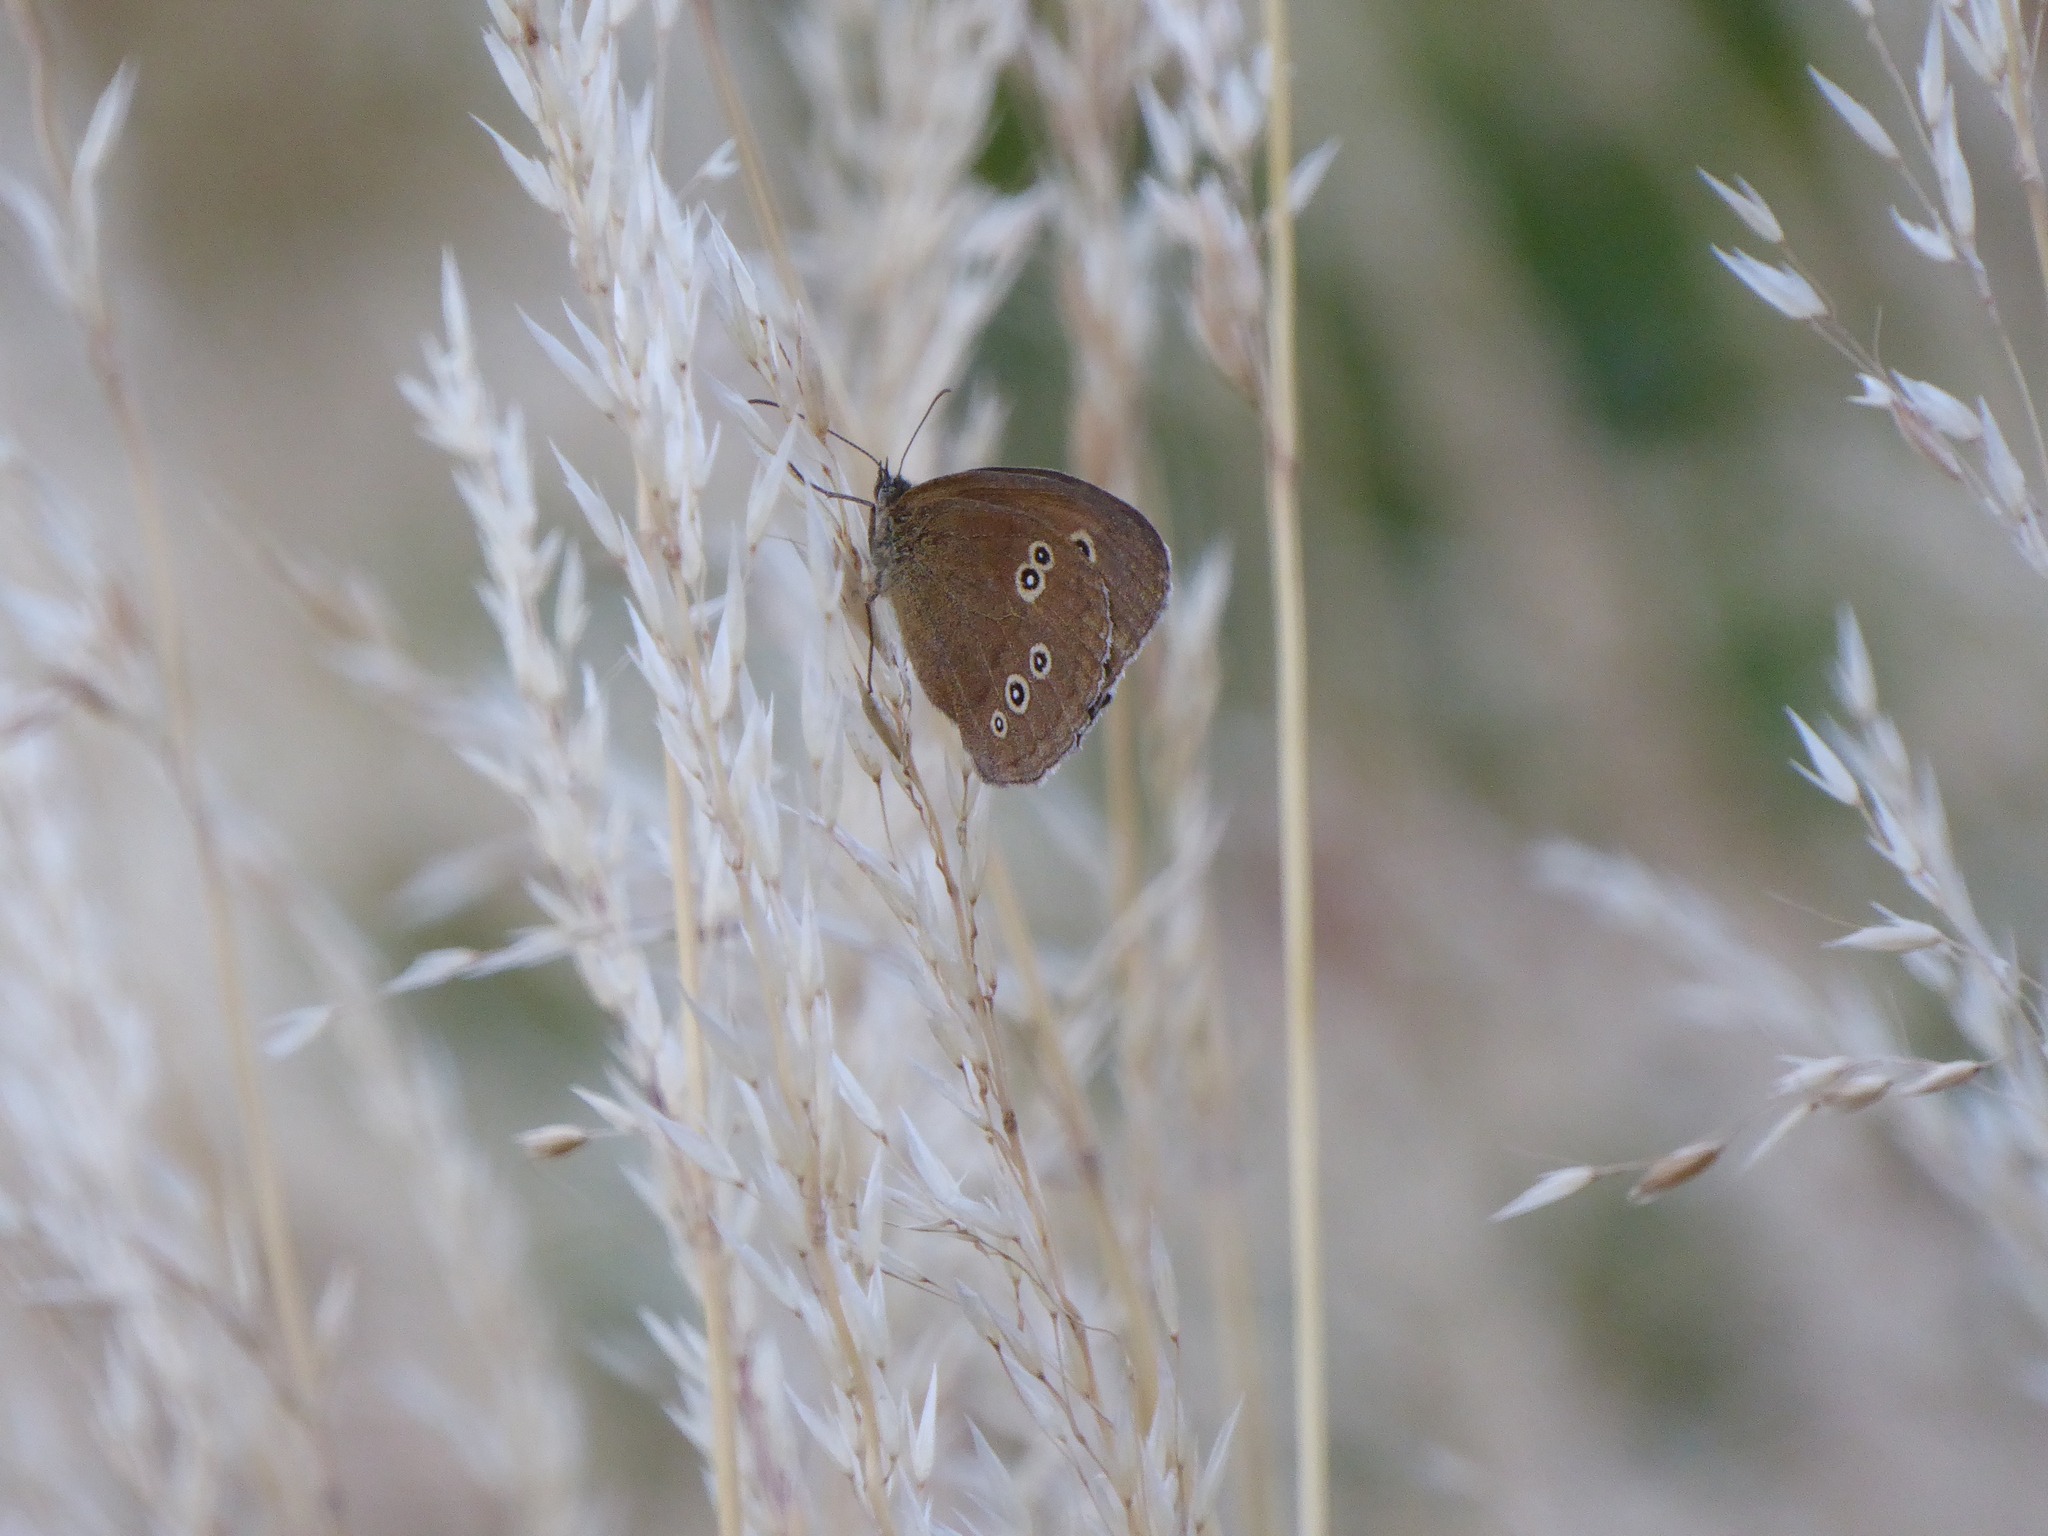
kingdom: Animalia
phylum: Arthropoda
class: Insecta
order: Lepidoptera
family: Nymphalidae
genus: Aphantopus
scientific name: Aphantopus hyperantus
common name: Ringlet
